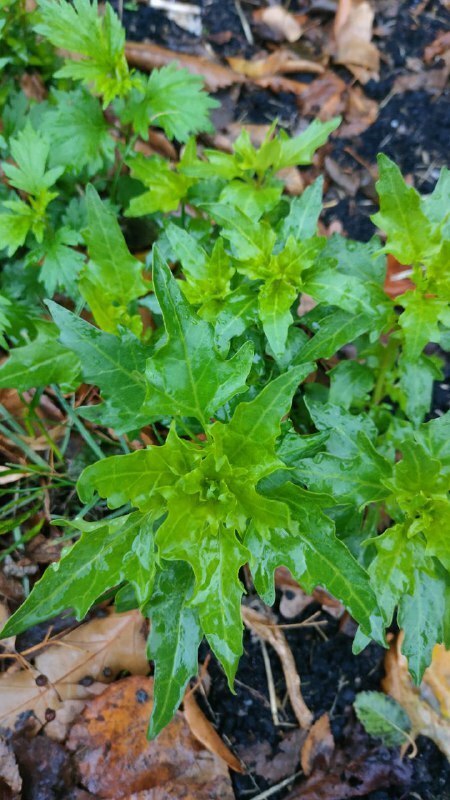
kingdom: Plantae
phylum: Tracheophyta
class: Magnoliopsida
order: Caryophyllales
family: Amaranthaceae
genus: Oxybasis
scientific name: Oxybasis rubra
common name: Red goosefoot
